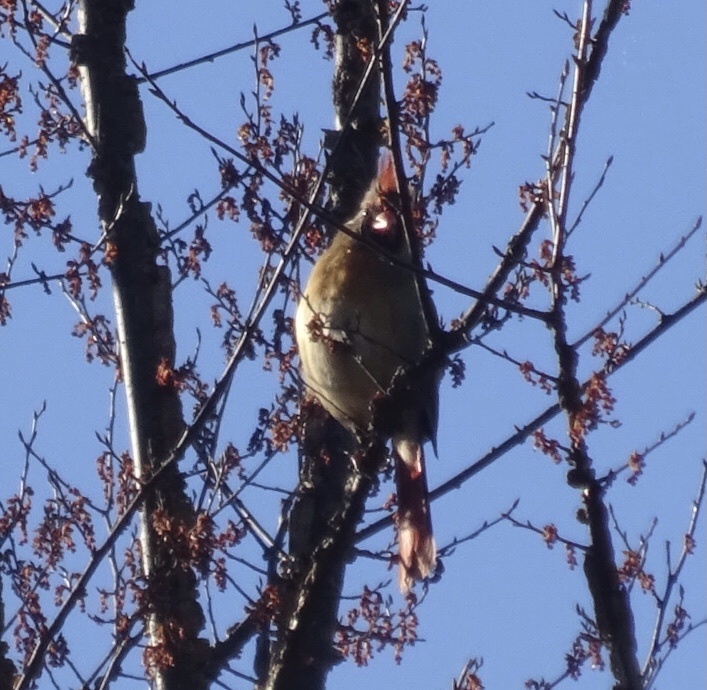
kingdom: Animalia
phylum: Chordata
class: Aves
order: Passeriformes
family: Cardinalidae
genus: Cardinalis
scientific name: Cardinalis cardinalis
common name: Northern cardinal
